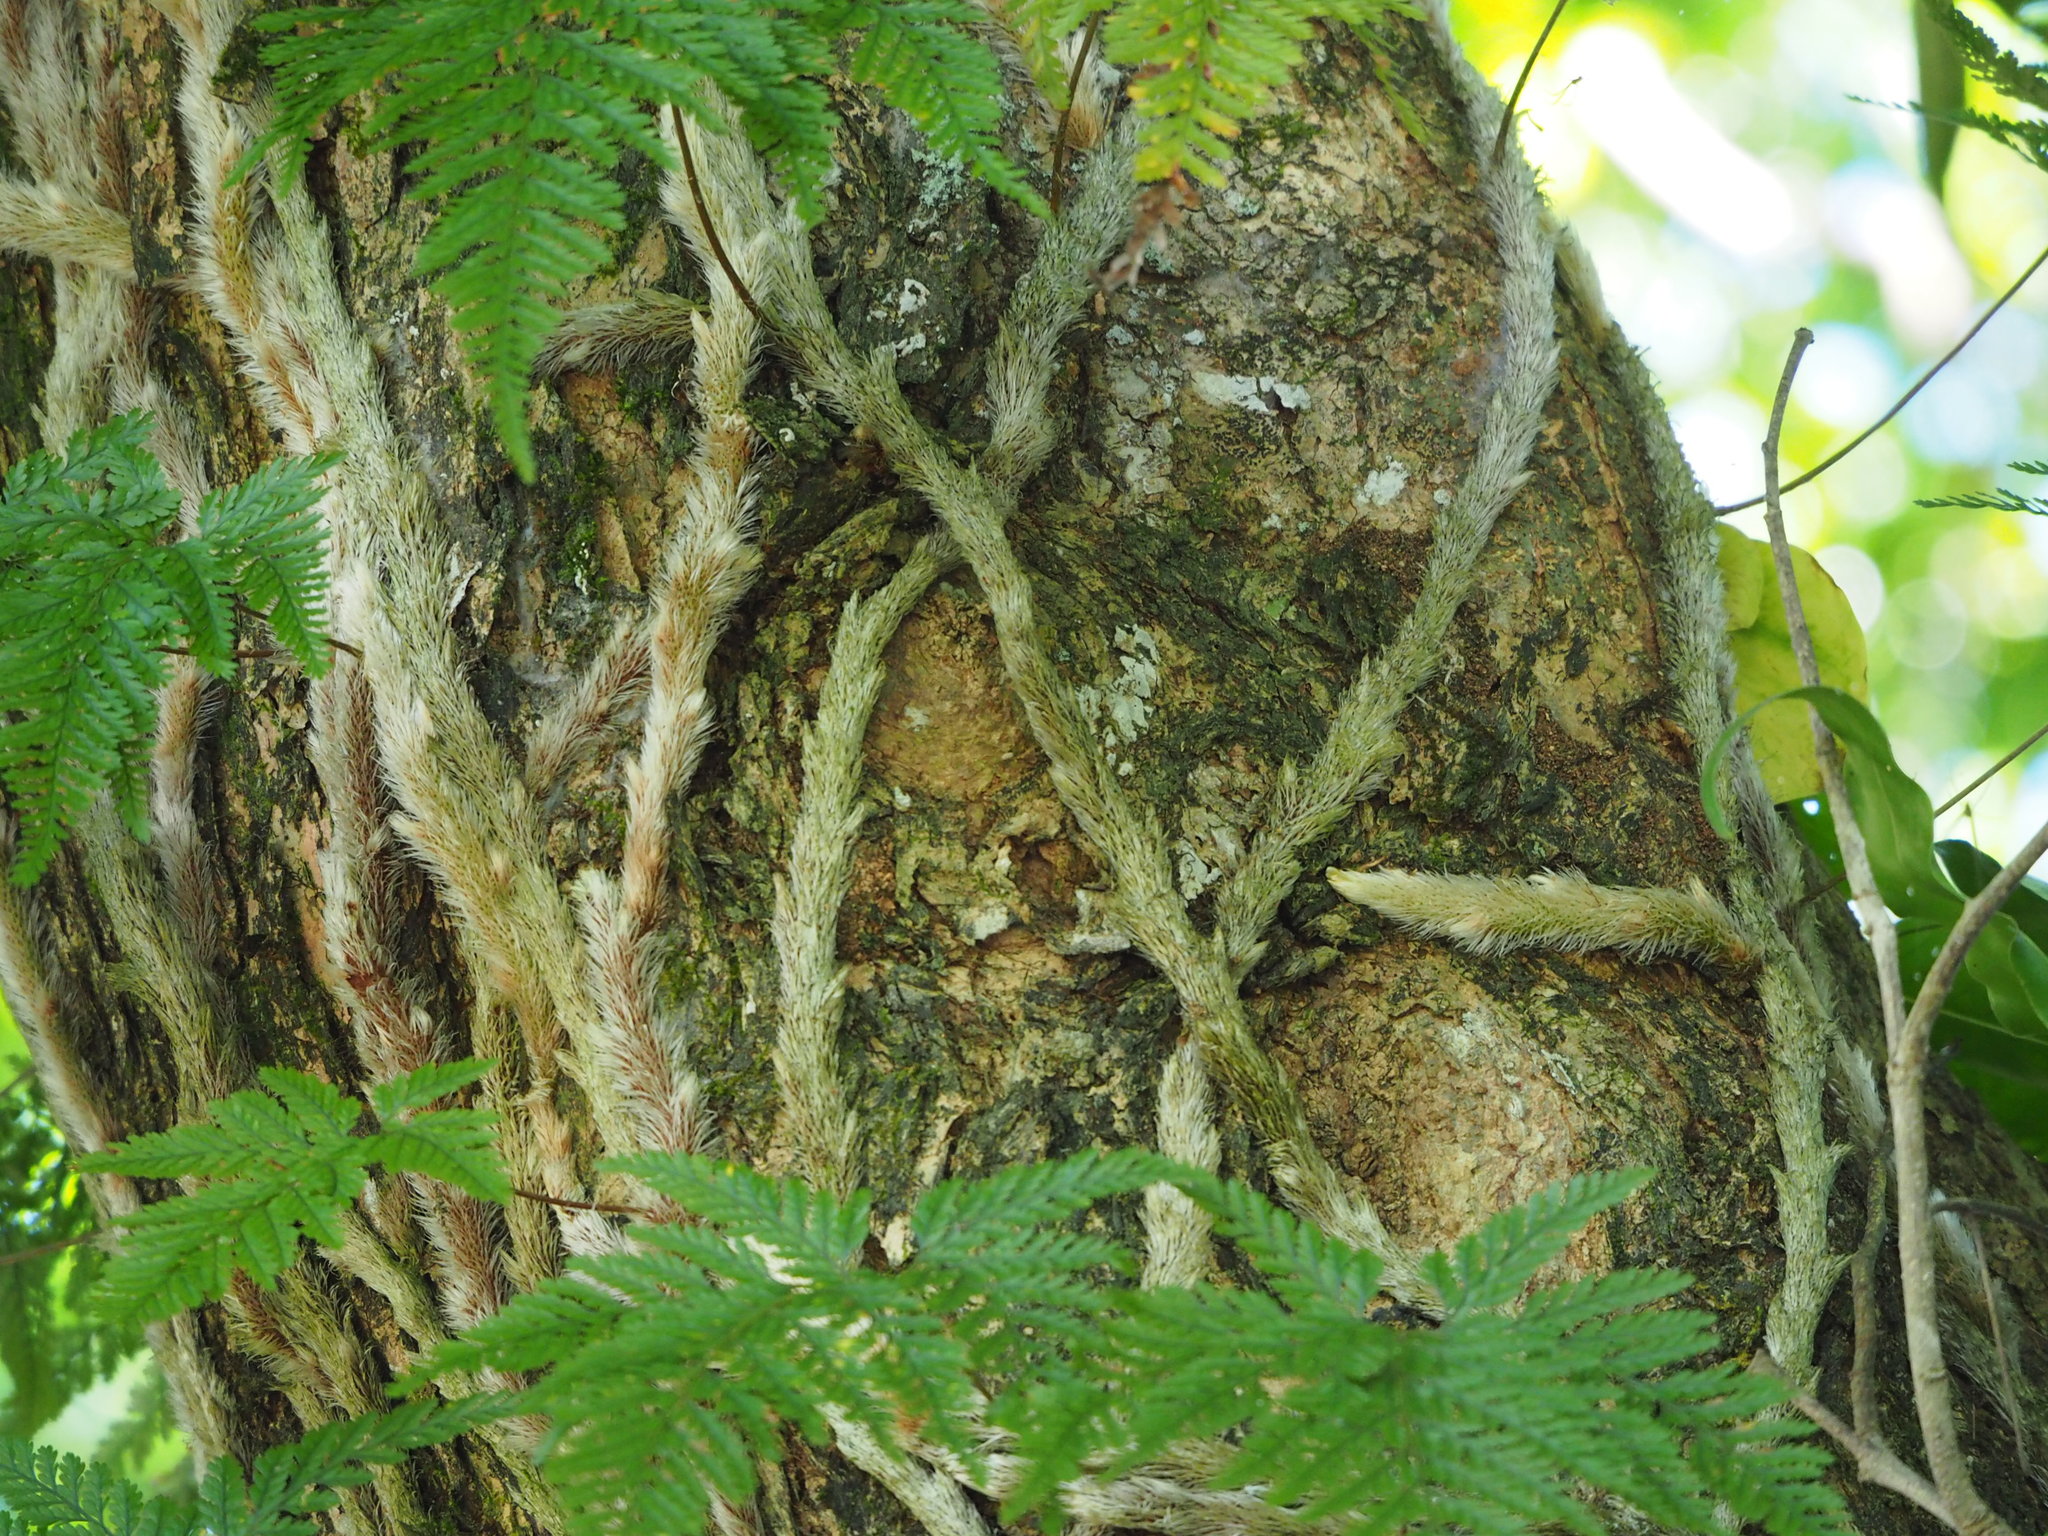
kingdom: Plantae
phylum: Tracheophyta
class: Polypodiopsida
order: Polypodiales
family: Davalliaceae
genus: Davallia
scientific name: Davallia griffithiana
